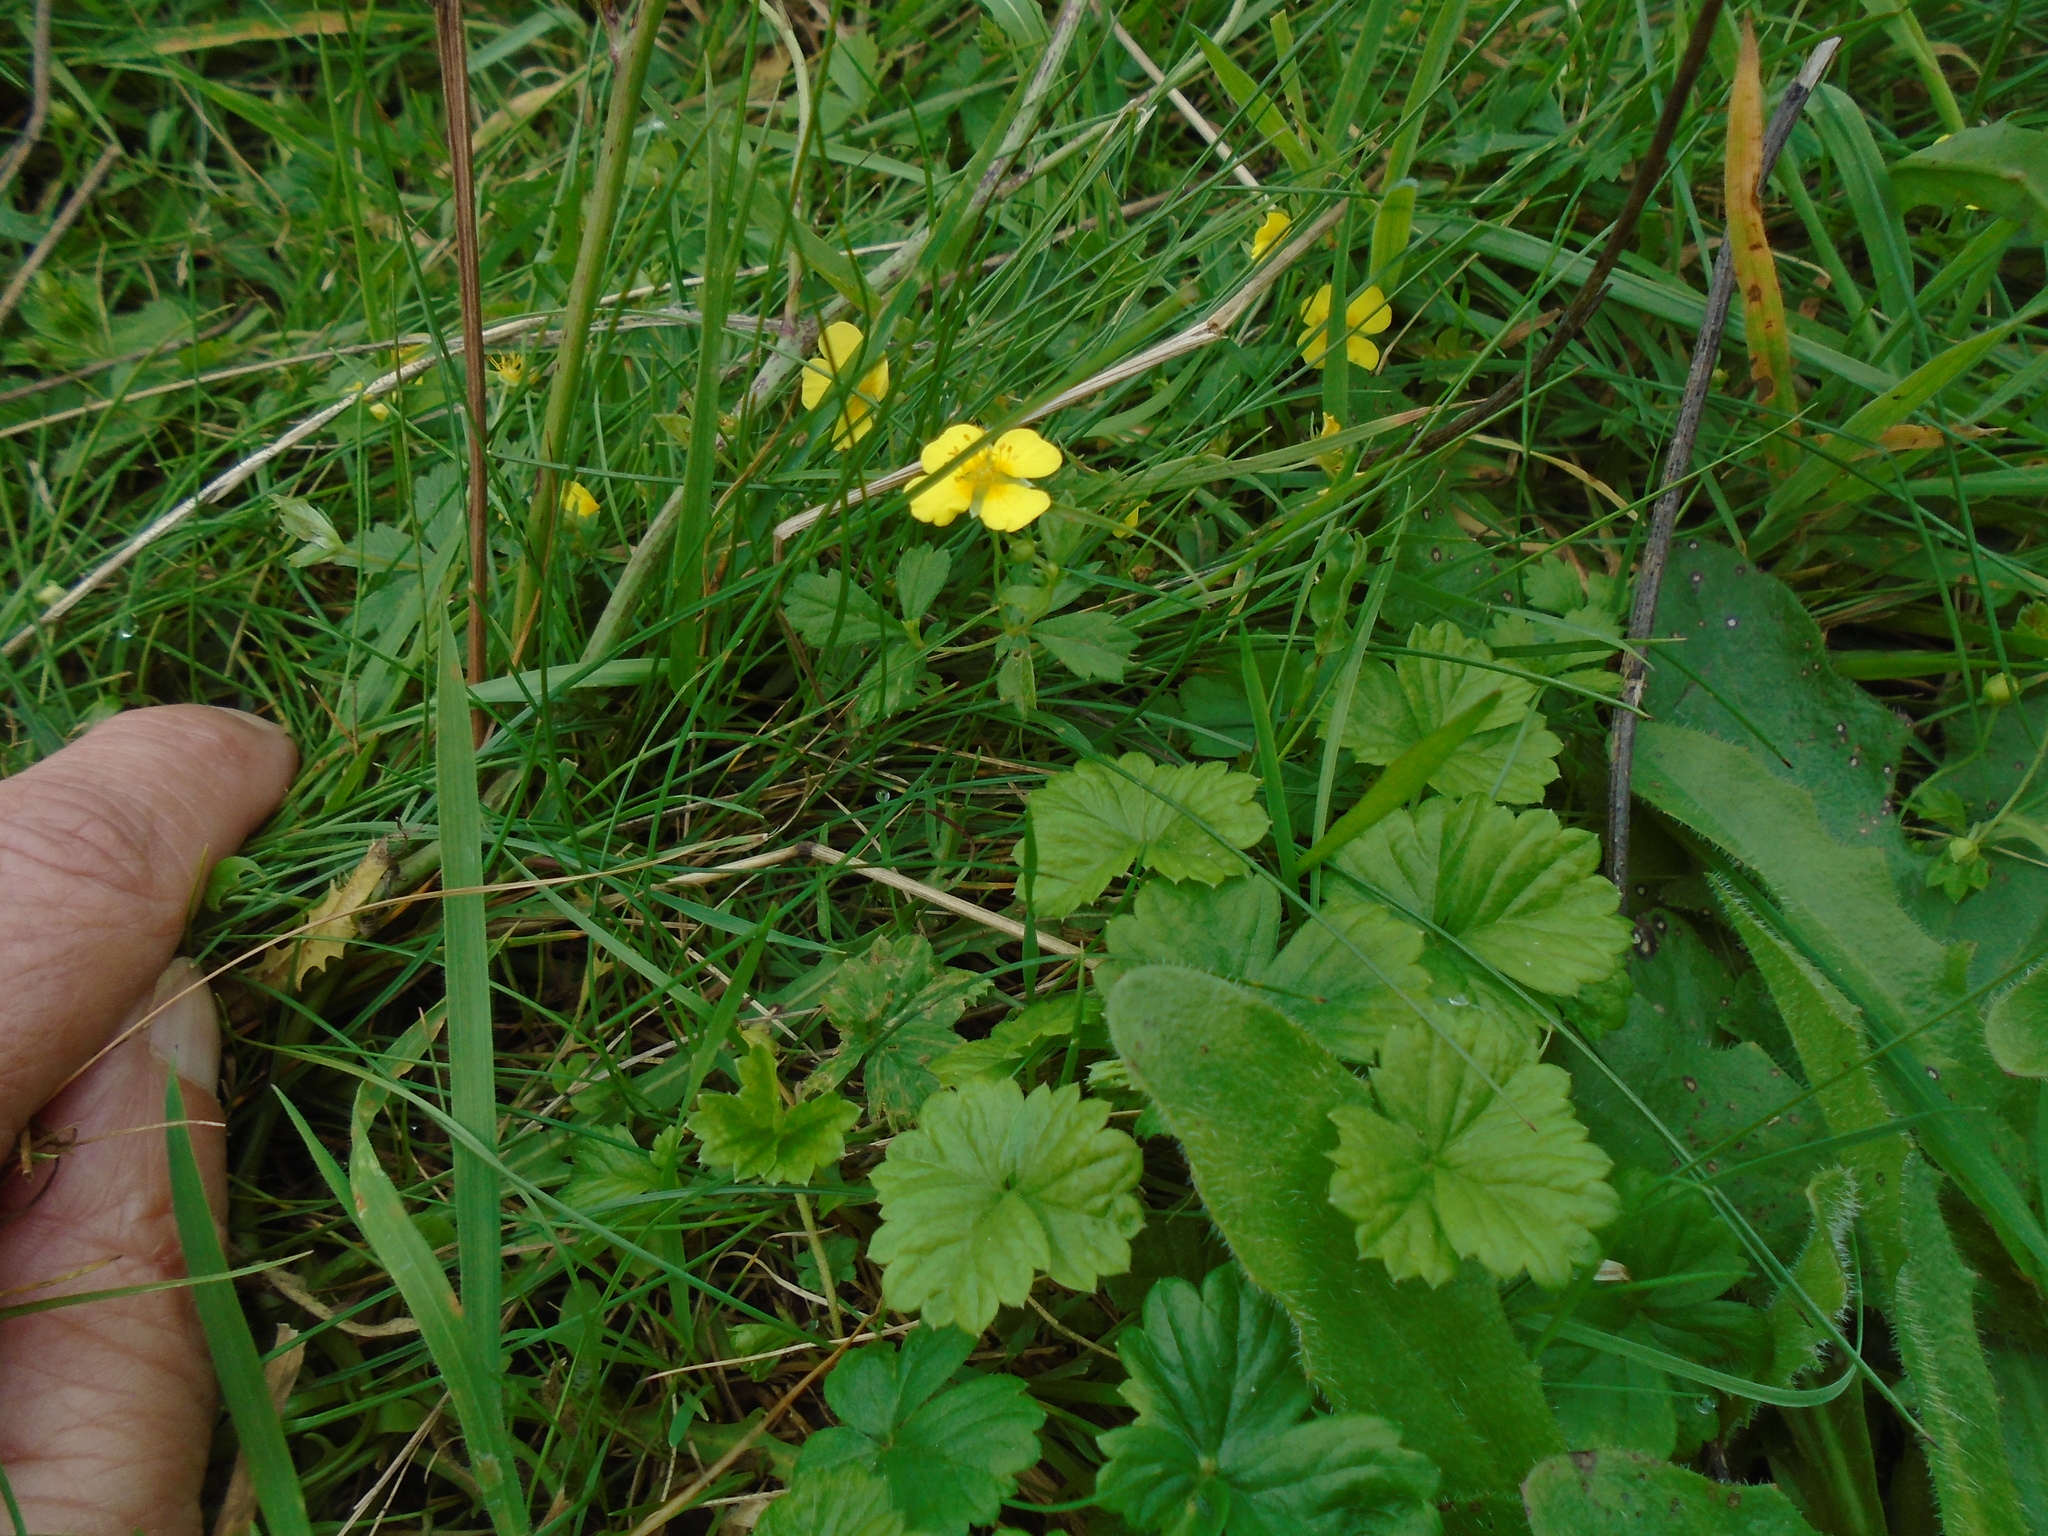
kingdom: Plantae
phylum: Tracheophyta
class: Magnoliopsida
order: Rosales
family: Rosaceae
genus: Potentilla
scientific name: Potentilla erecta
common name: Tormentil
